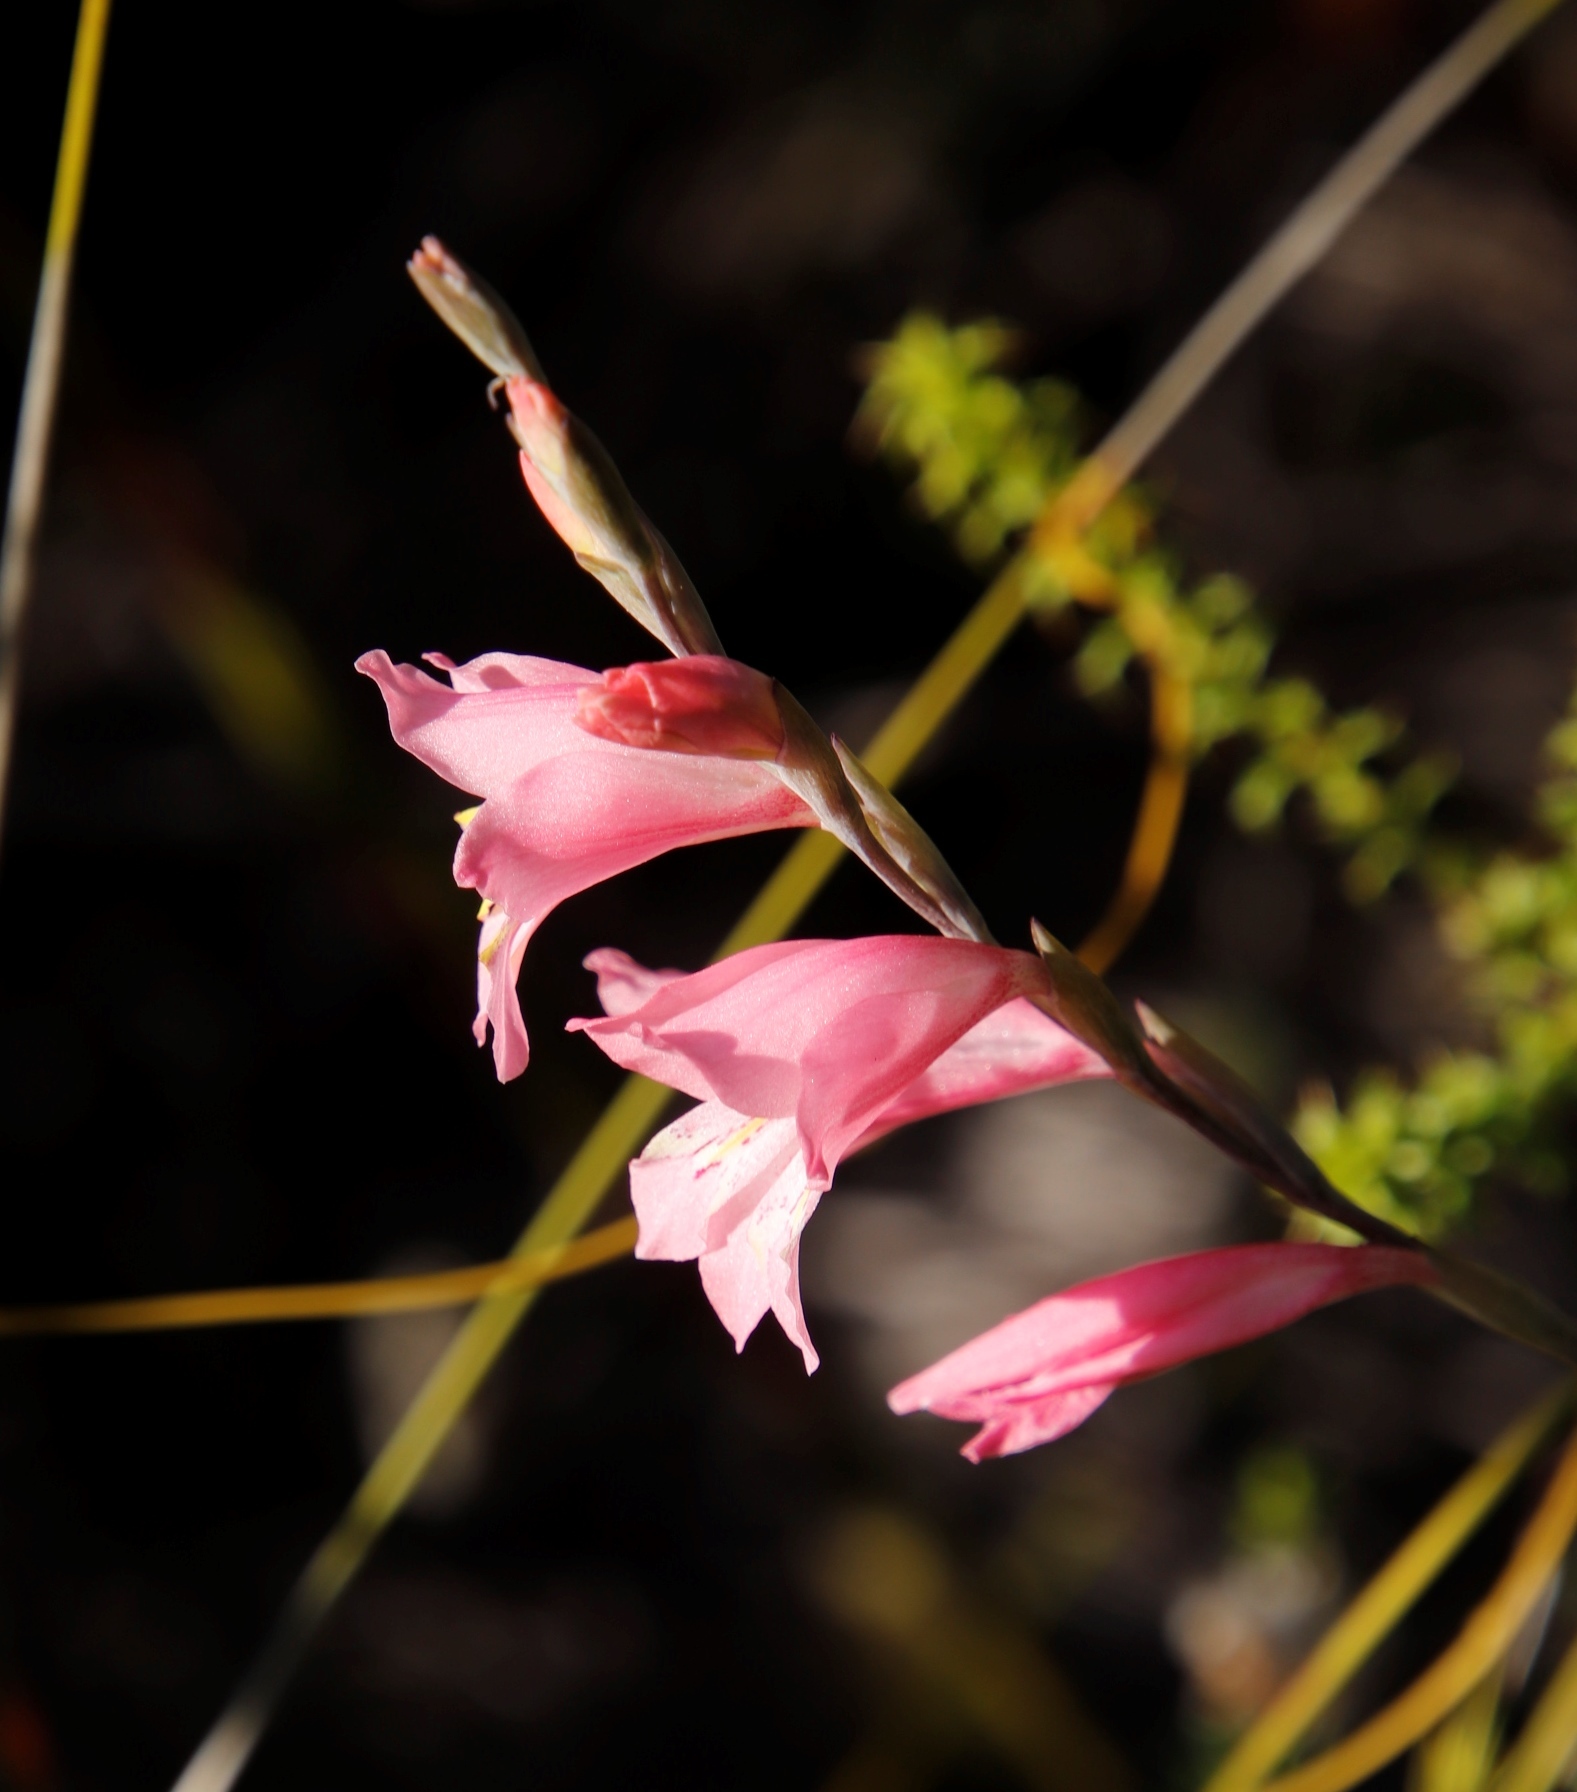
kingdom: Plantae
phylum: Tracheophyta
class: Liliopsida
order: Asparagales
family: Iridaceae
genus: Gladiolus
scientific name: Gladiolus brevifolius
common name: March pypie
